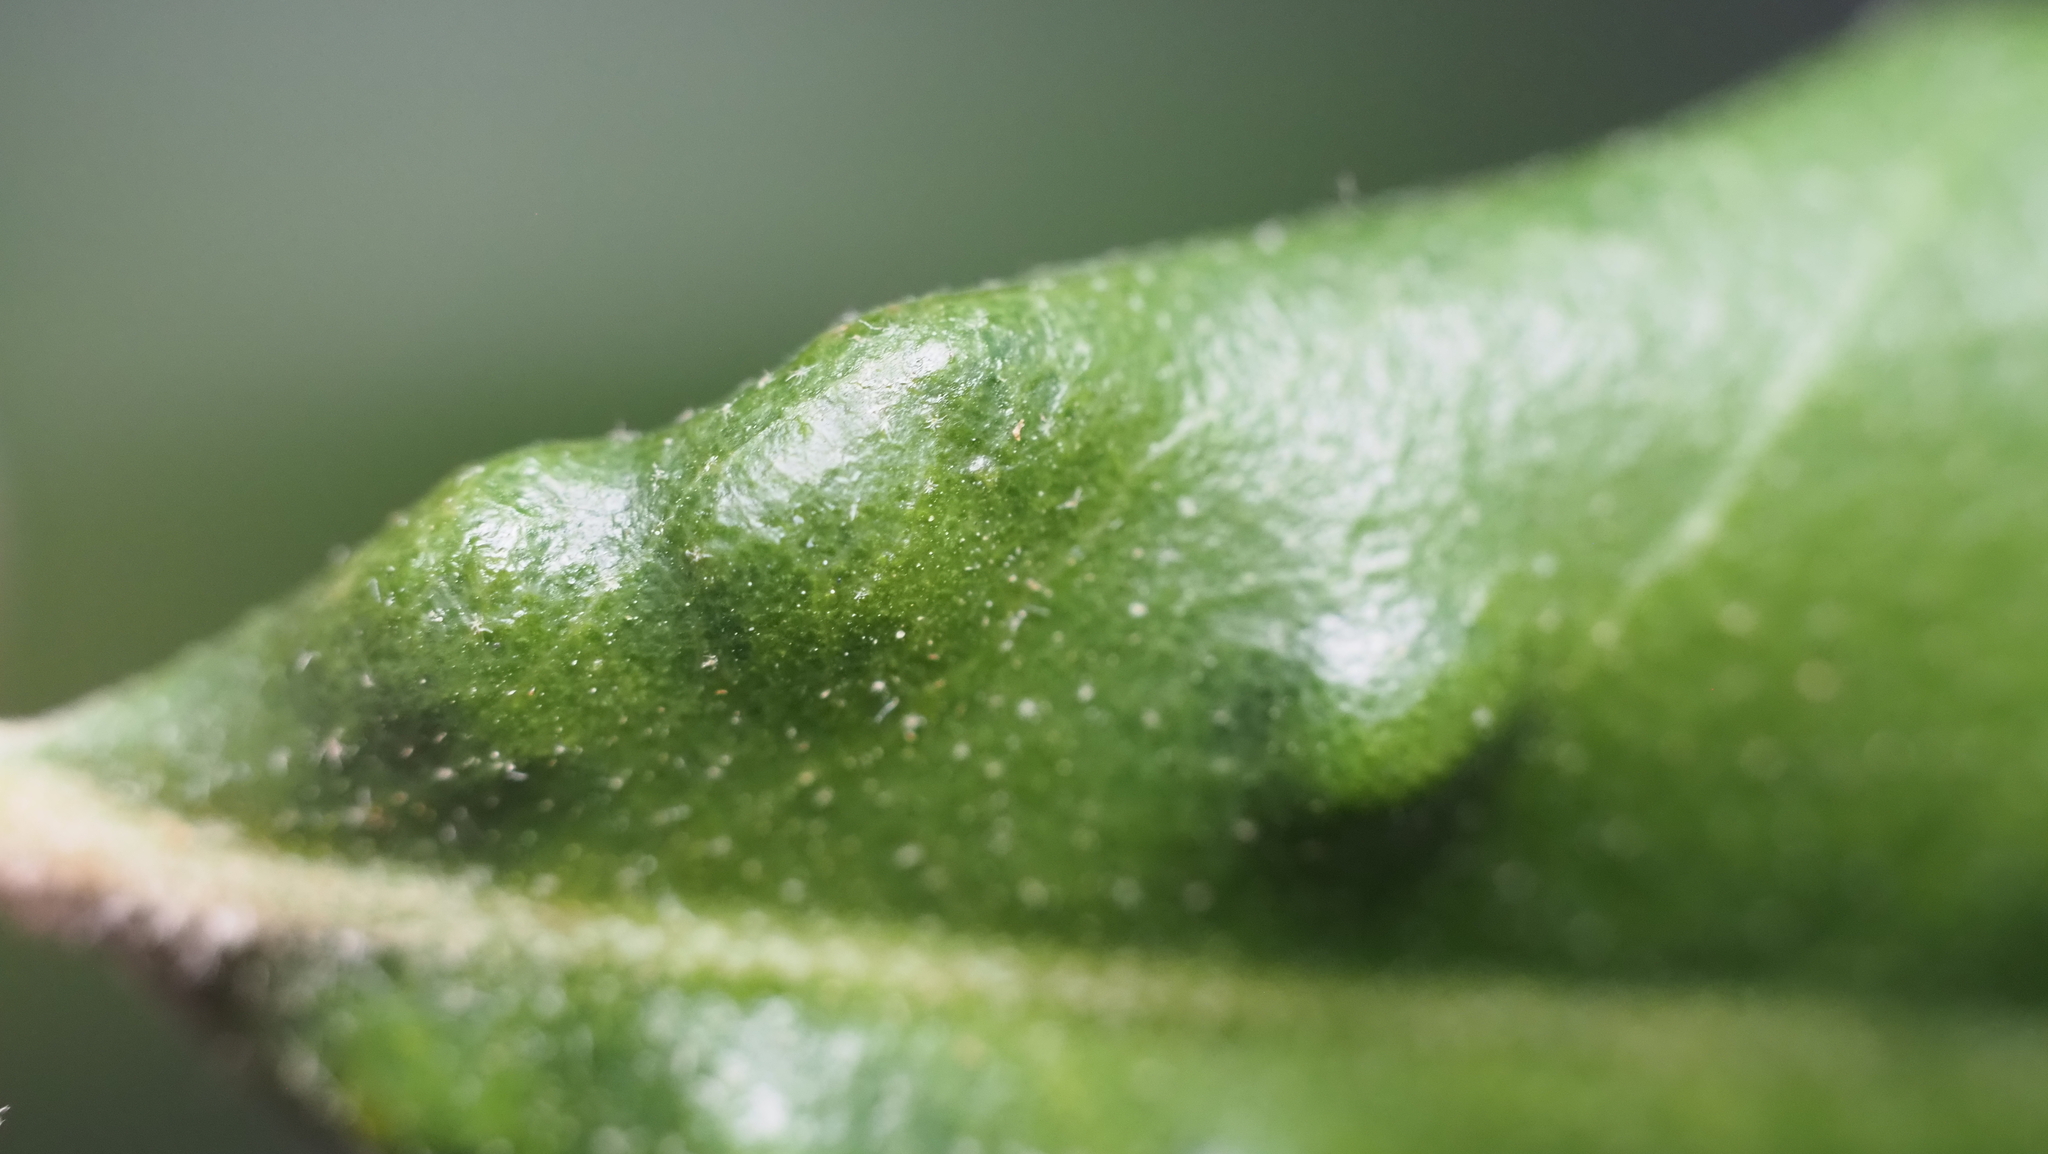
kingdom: Animalia
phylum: Arthropoda
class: Arachnida
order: Trombidiformes
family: Eriophyidae
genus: Aceria
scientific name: Aceria quercina
